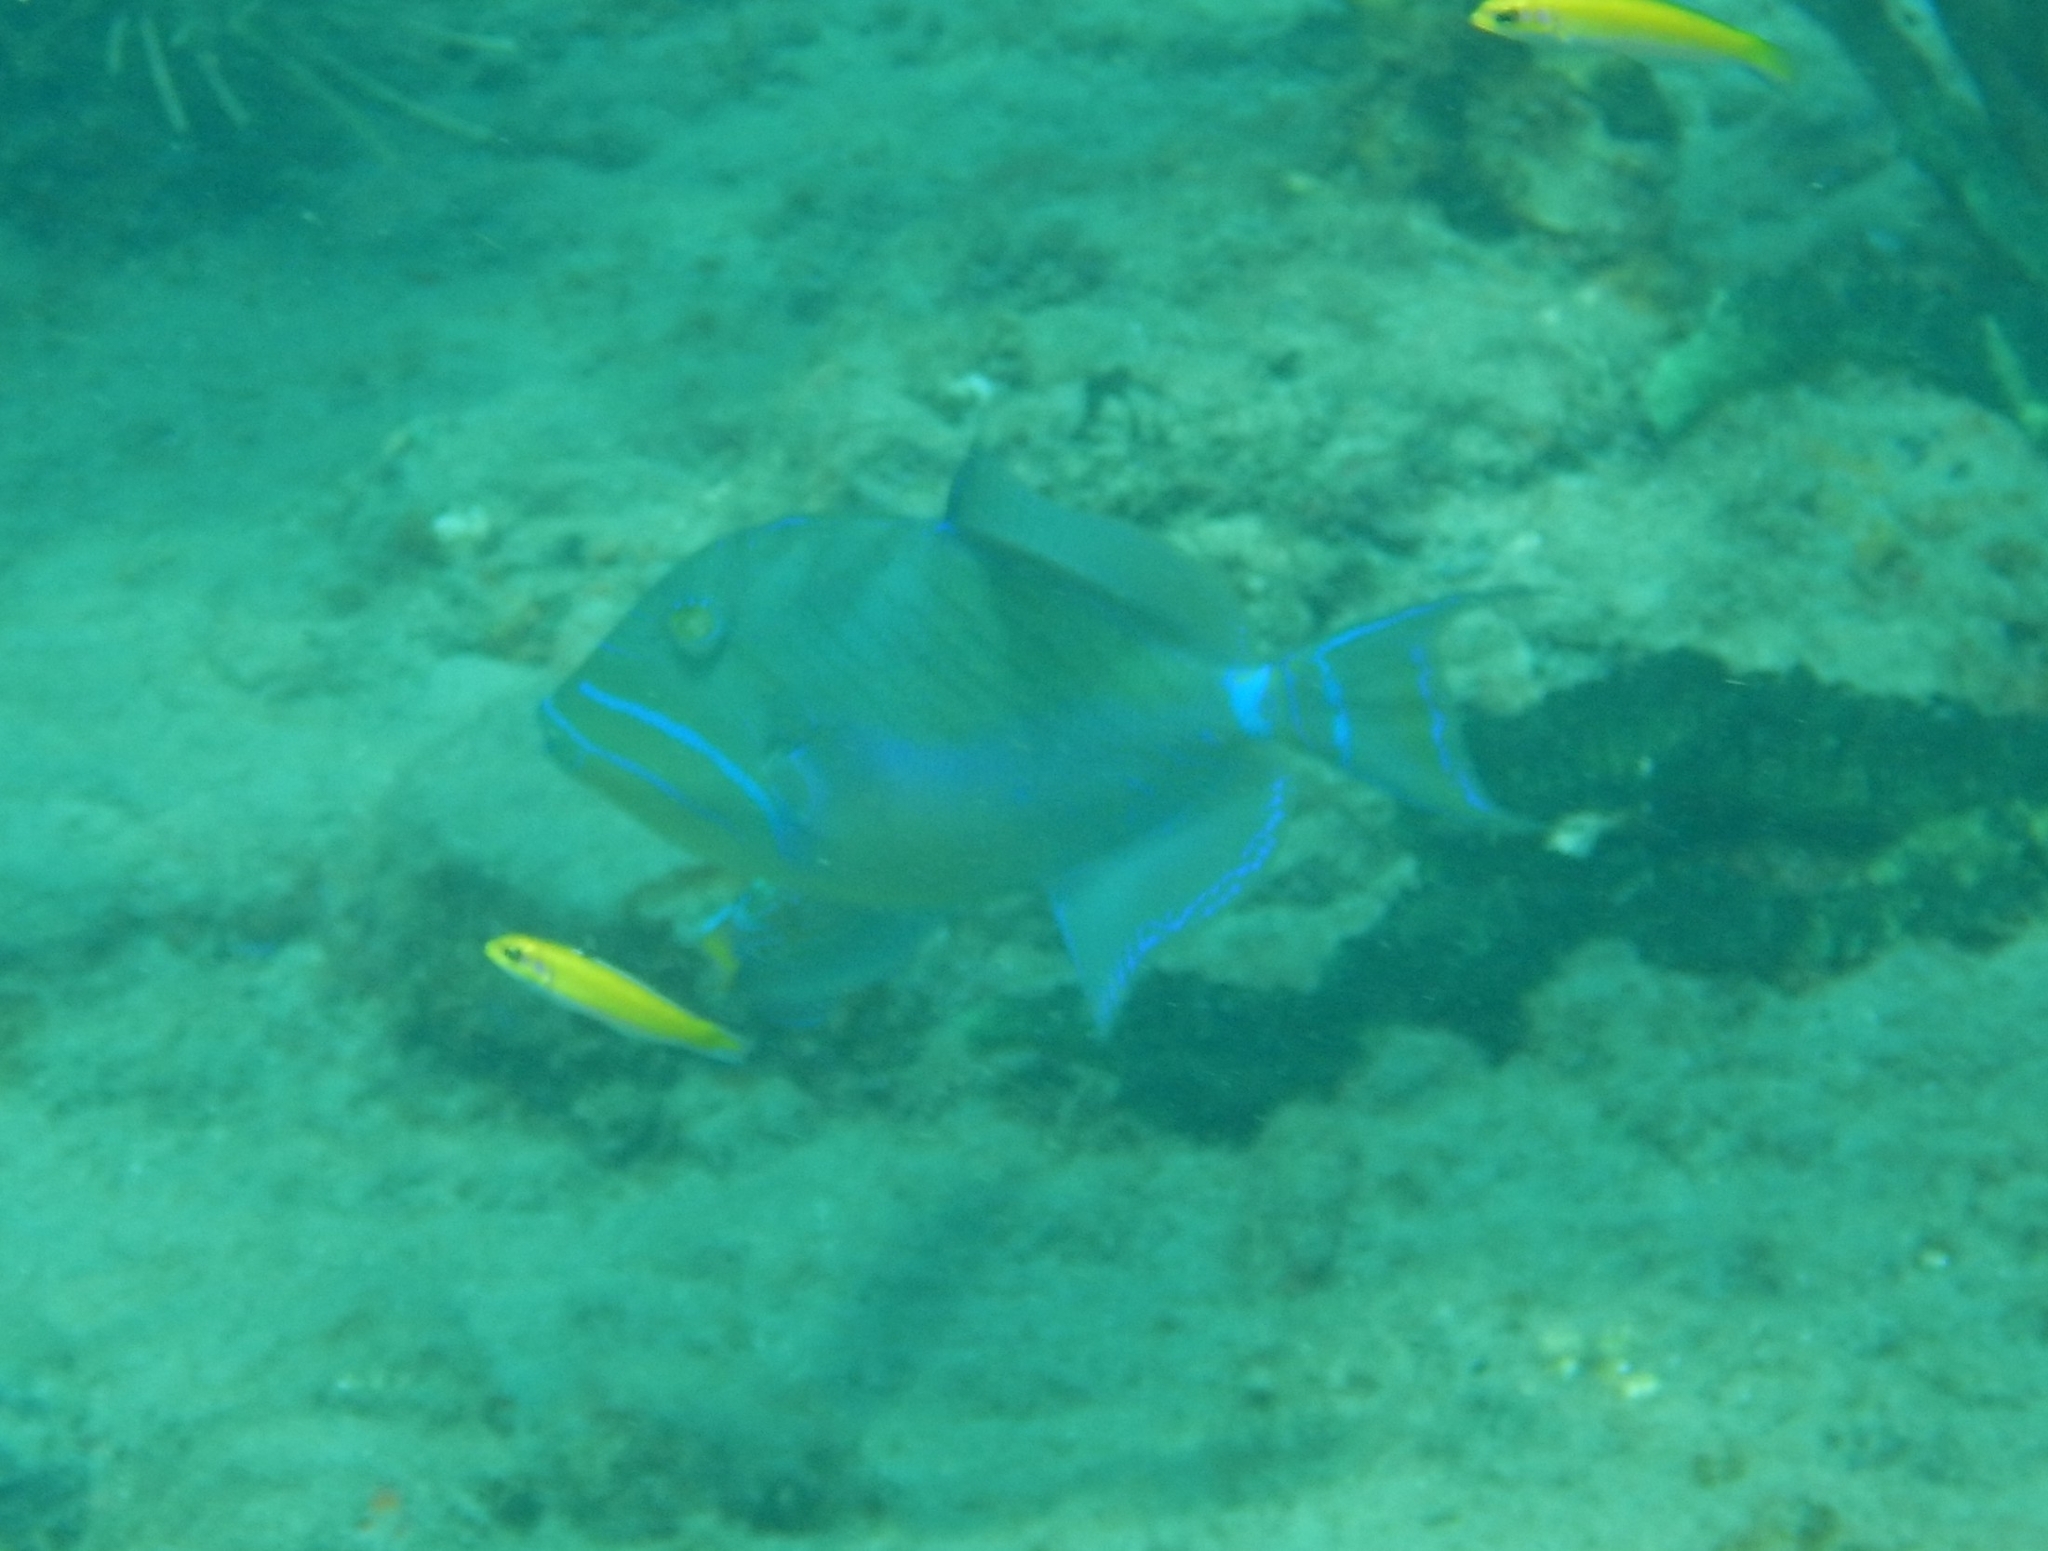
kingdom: Animalia
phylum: Chordata
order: Tetraodontiformes
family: Balistidae
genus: Balistes
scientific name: Balistes vetula
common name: Queen triggerfish
